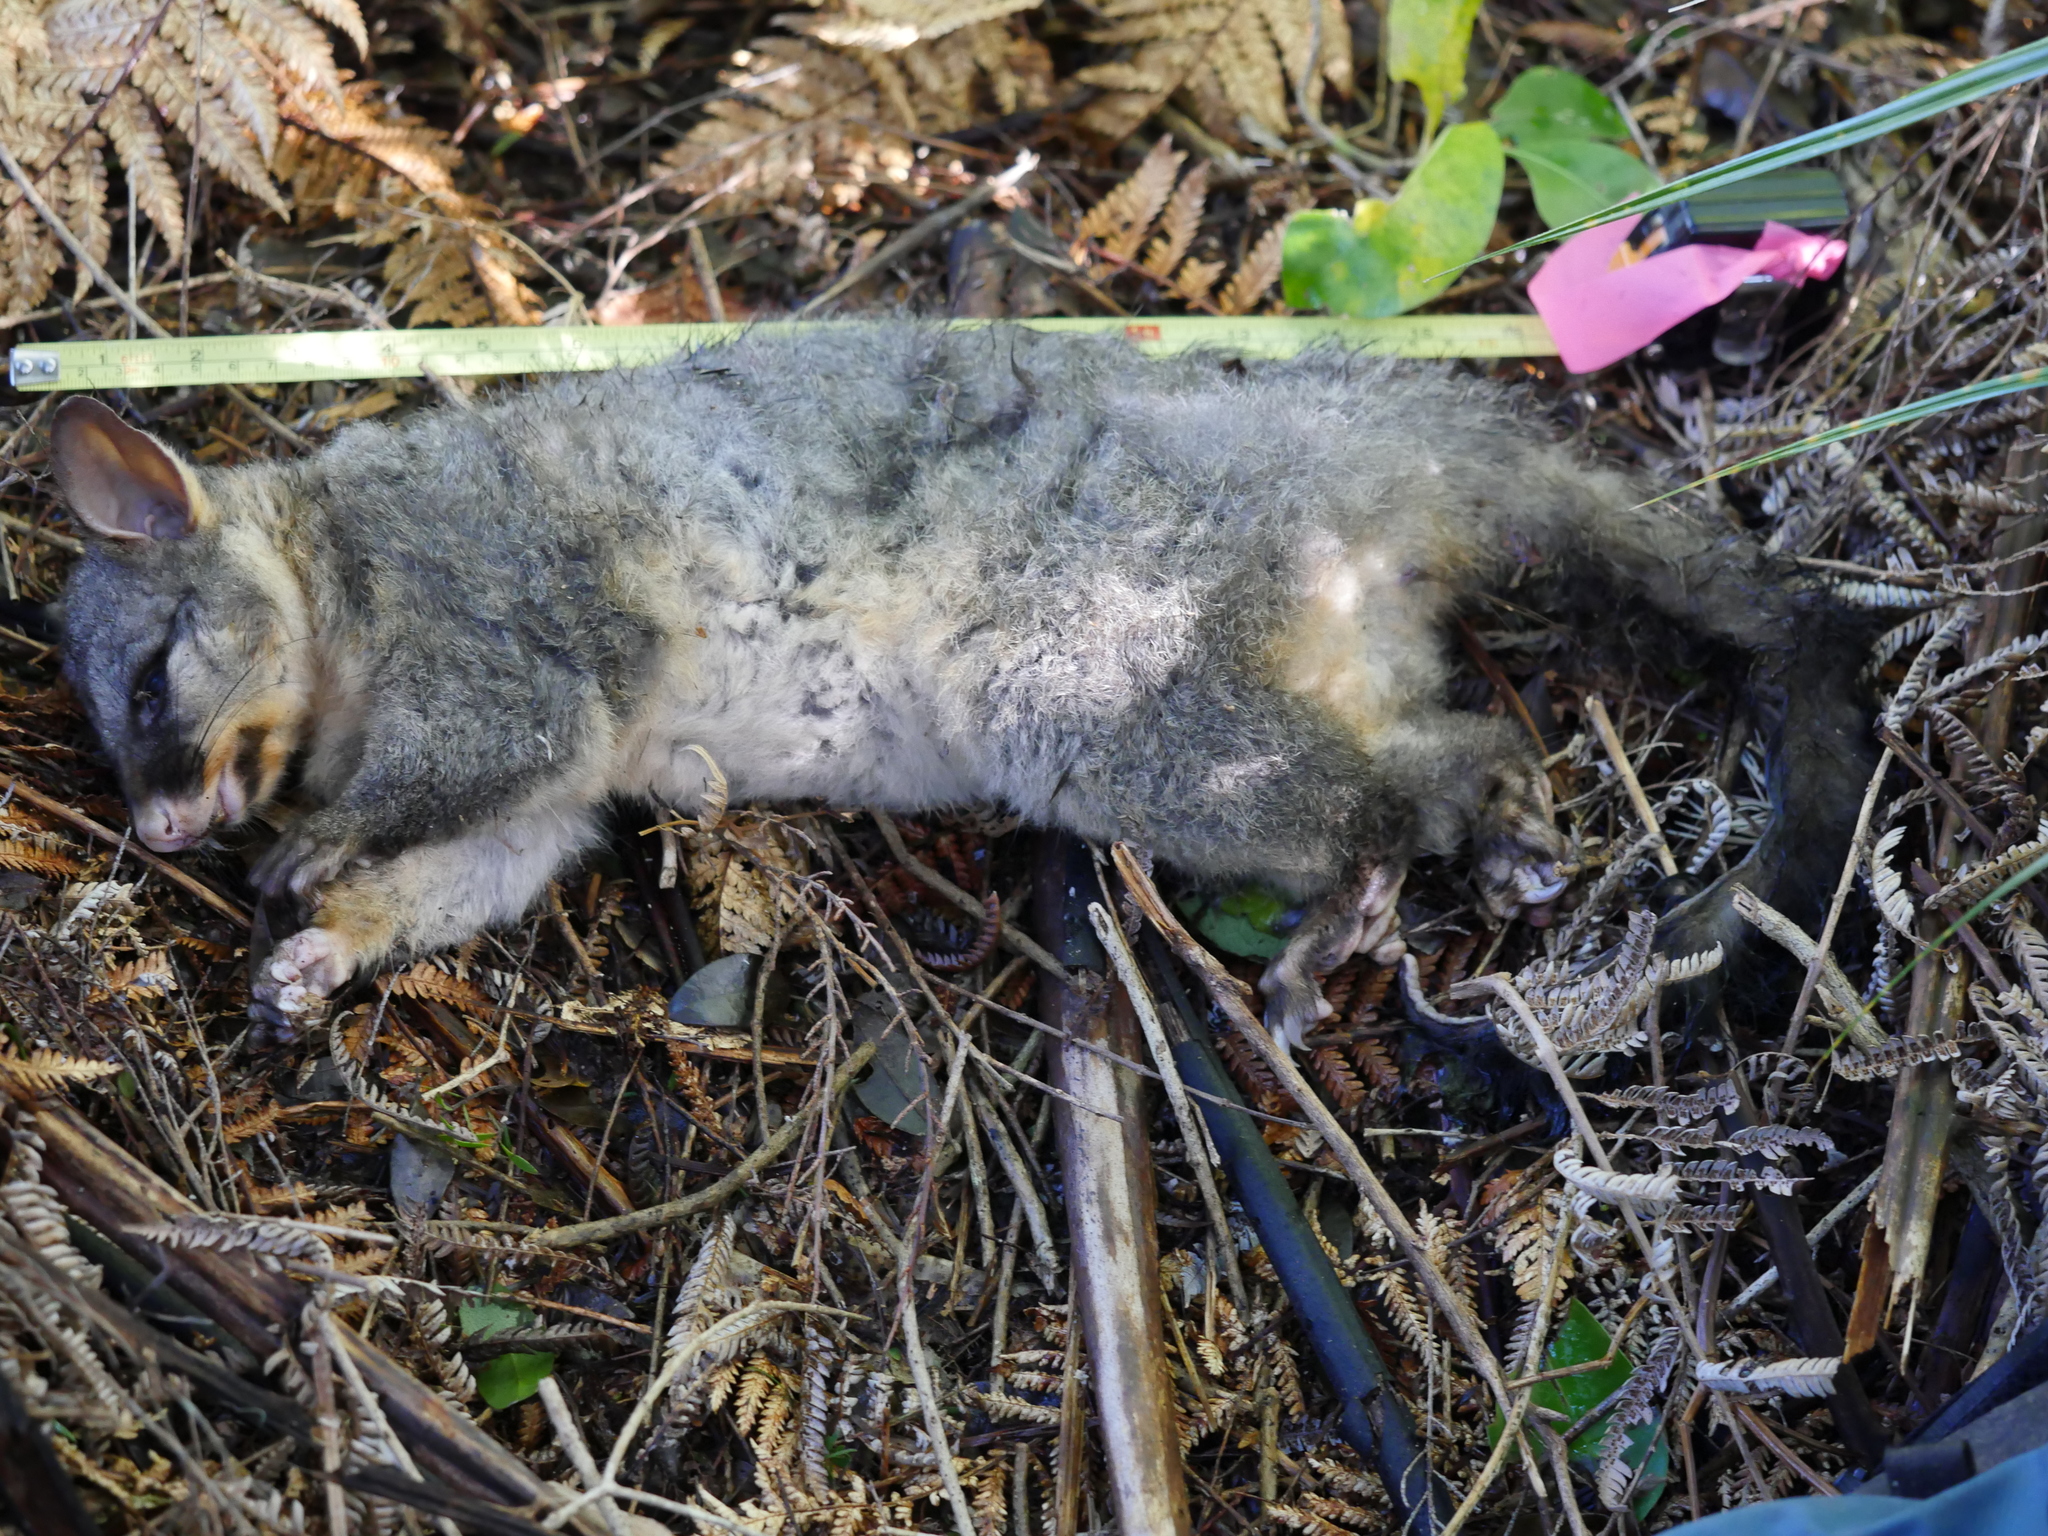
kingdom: Animalia
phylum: Chordata
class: Mammalia
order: Diprotodontia
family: Phalangeridae
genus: Trichosurus
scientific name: Trichosurus vulpecula
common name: Common brushtail
